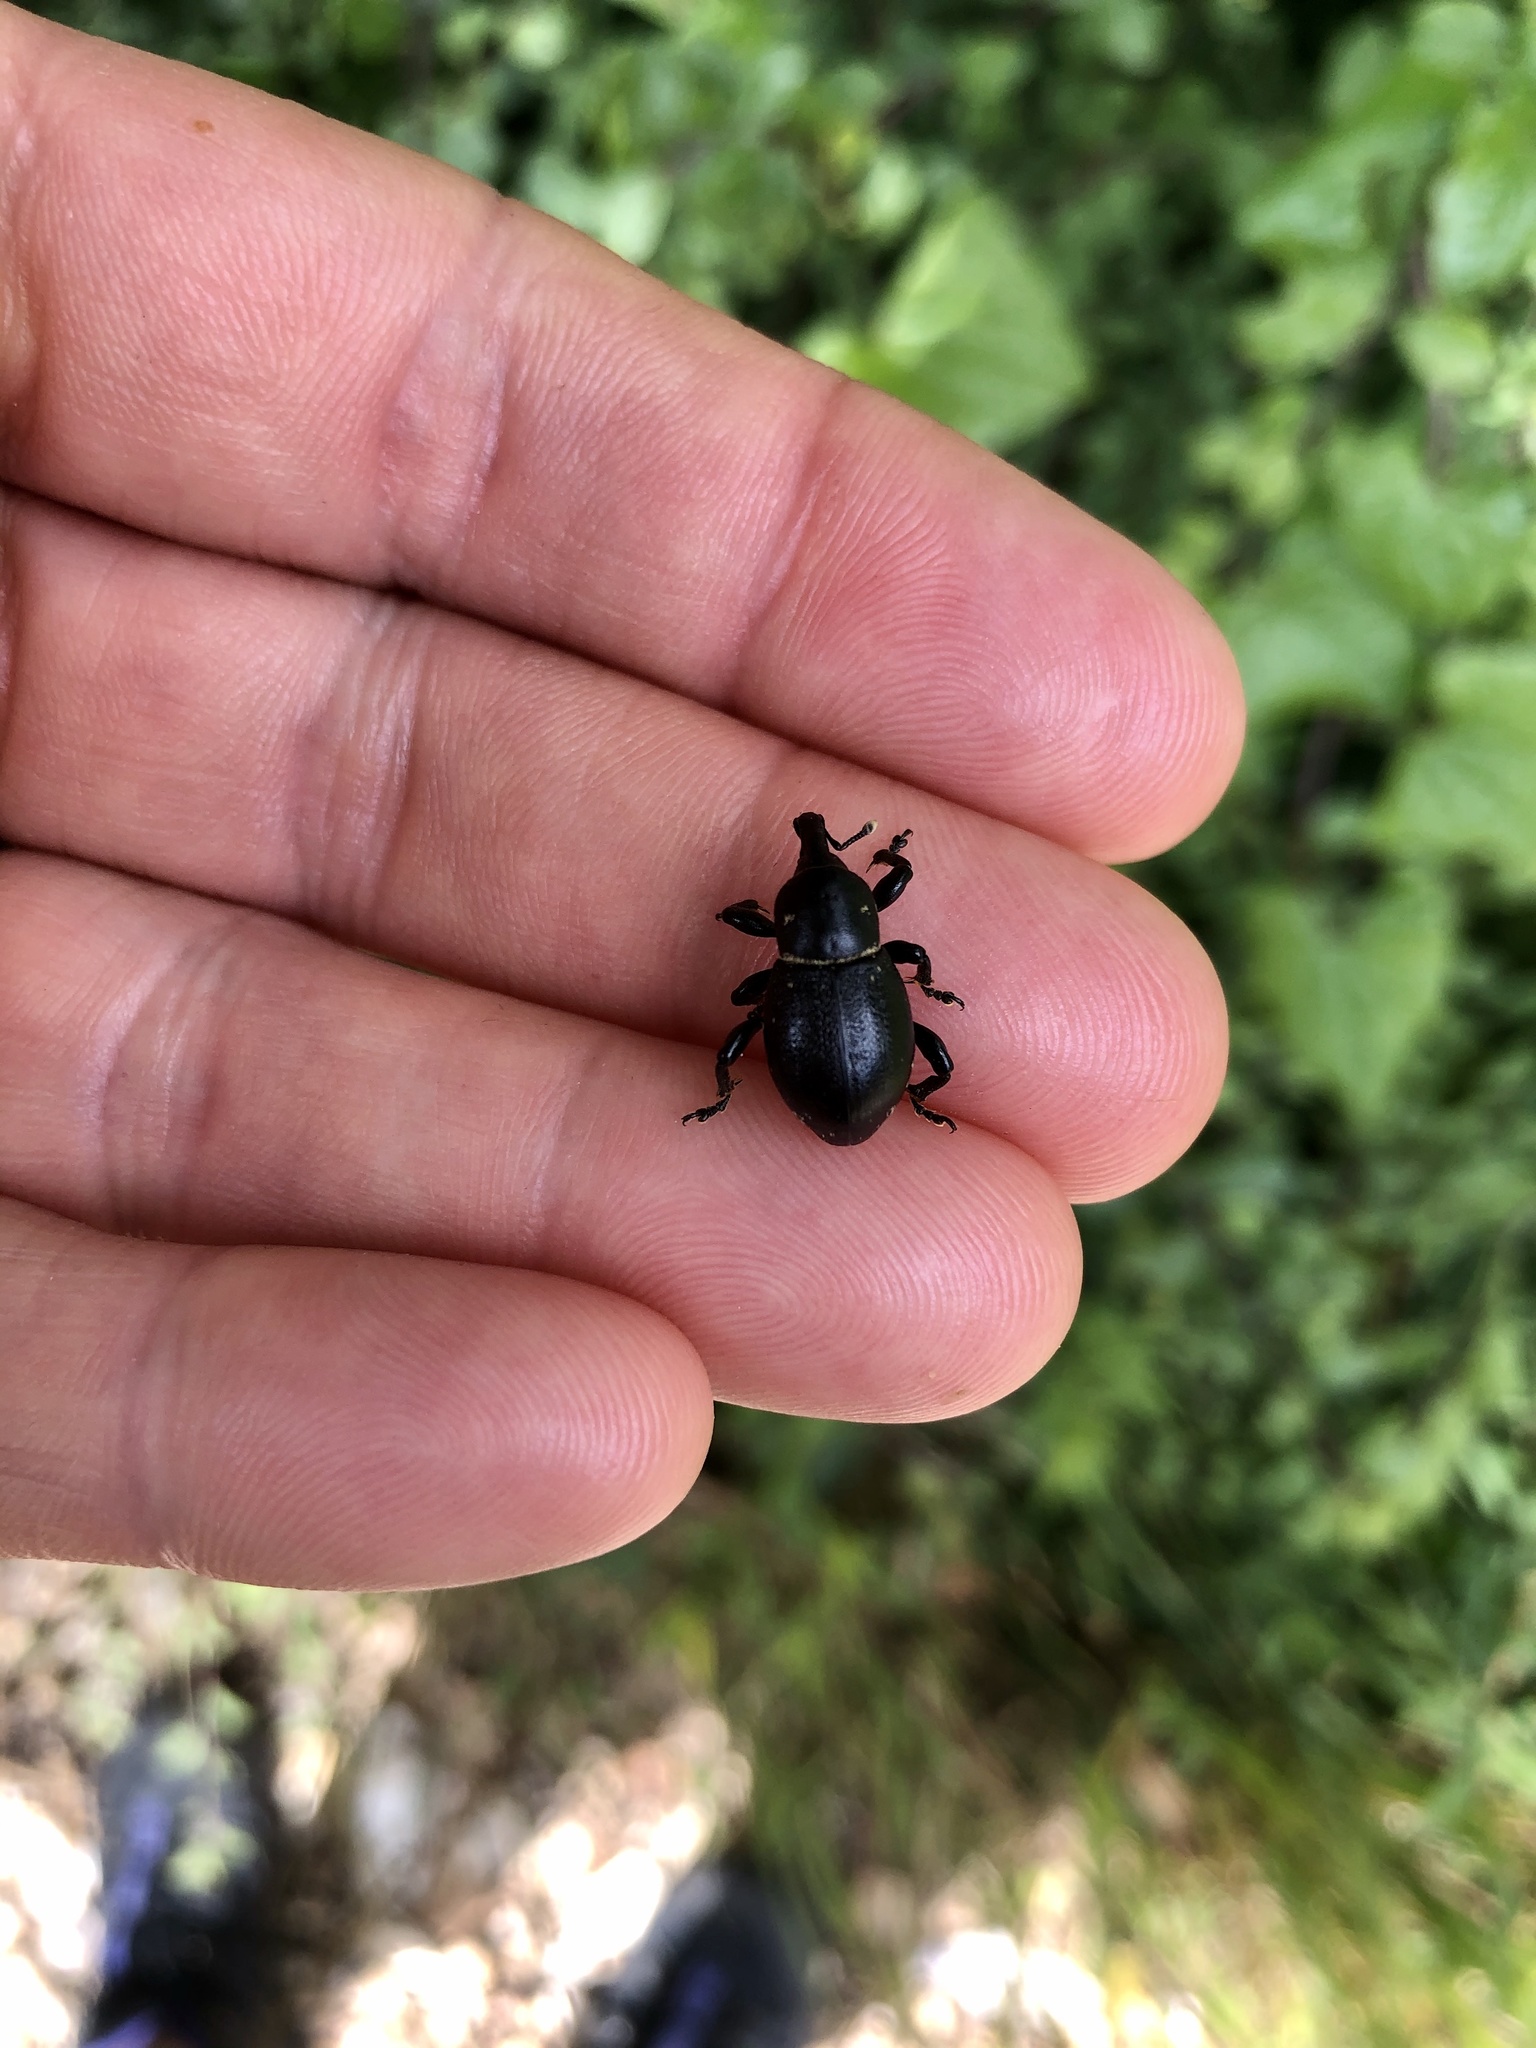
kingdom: Animalia
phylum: Arthropoda
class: Insecta
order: Coleoptera
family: Curculionidae
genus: Liparus
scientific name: Liparus coronatus
